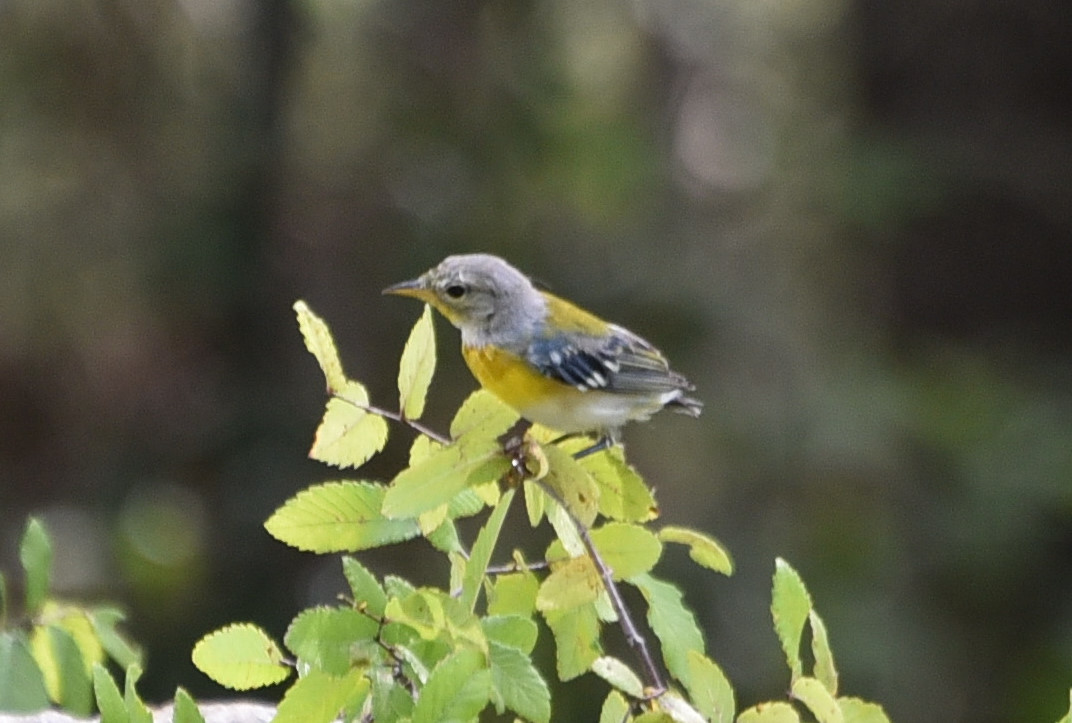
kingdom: Animalia
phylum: Chordata
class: Aves
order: Passeriformes
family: Parulidae
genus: Setophaga
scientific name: Setophaga americana
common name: Northern parula
